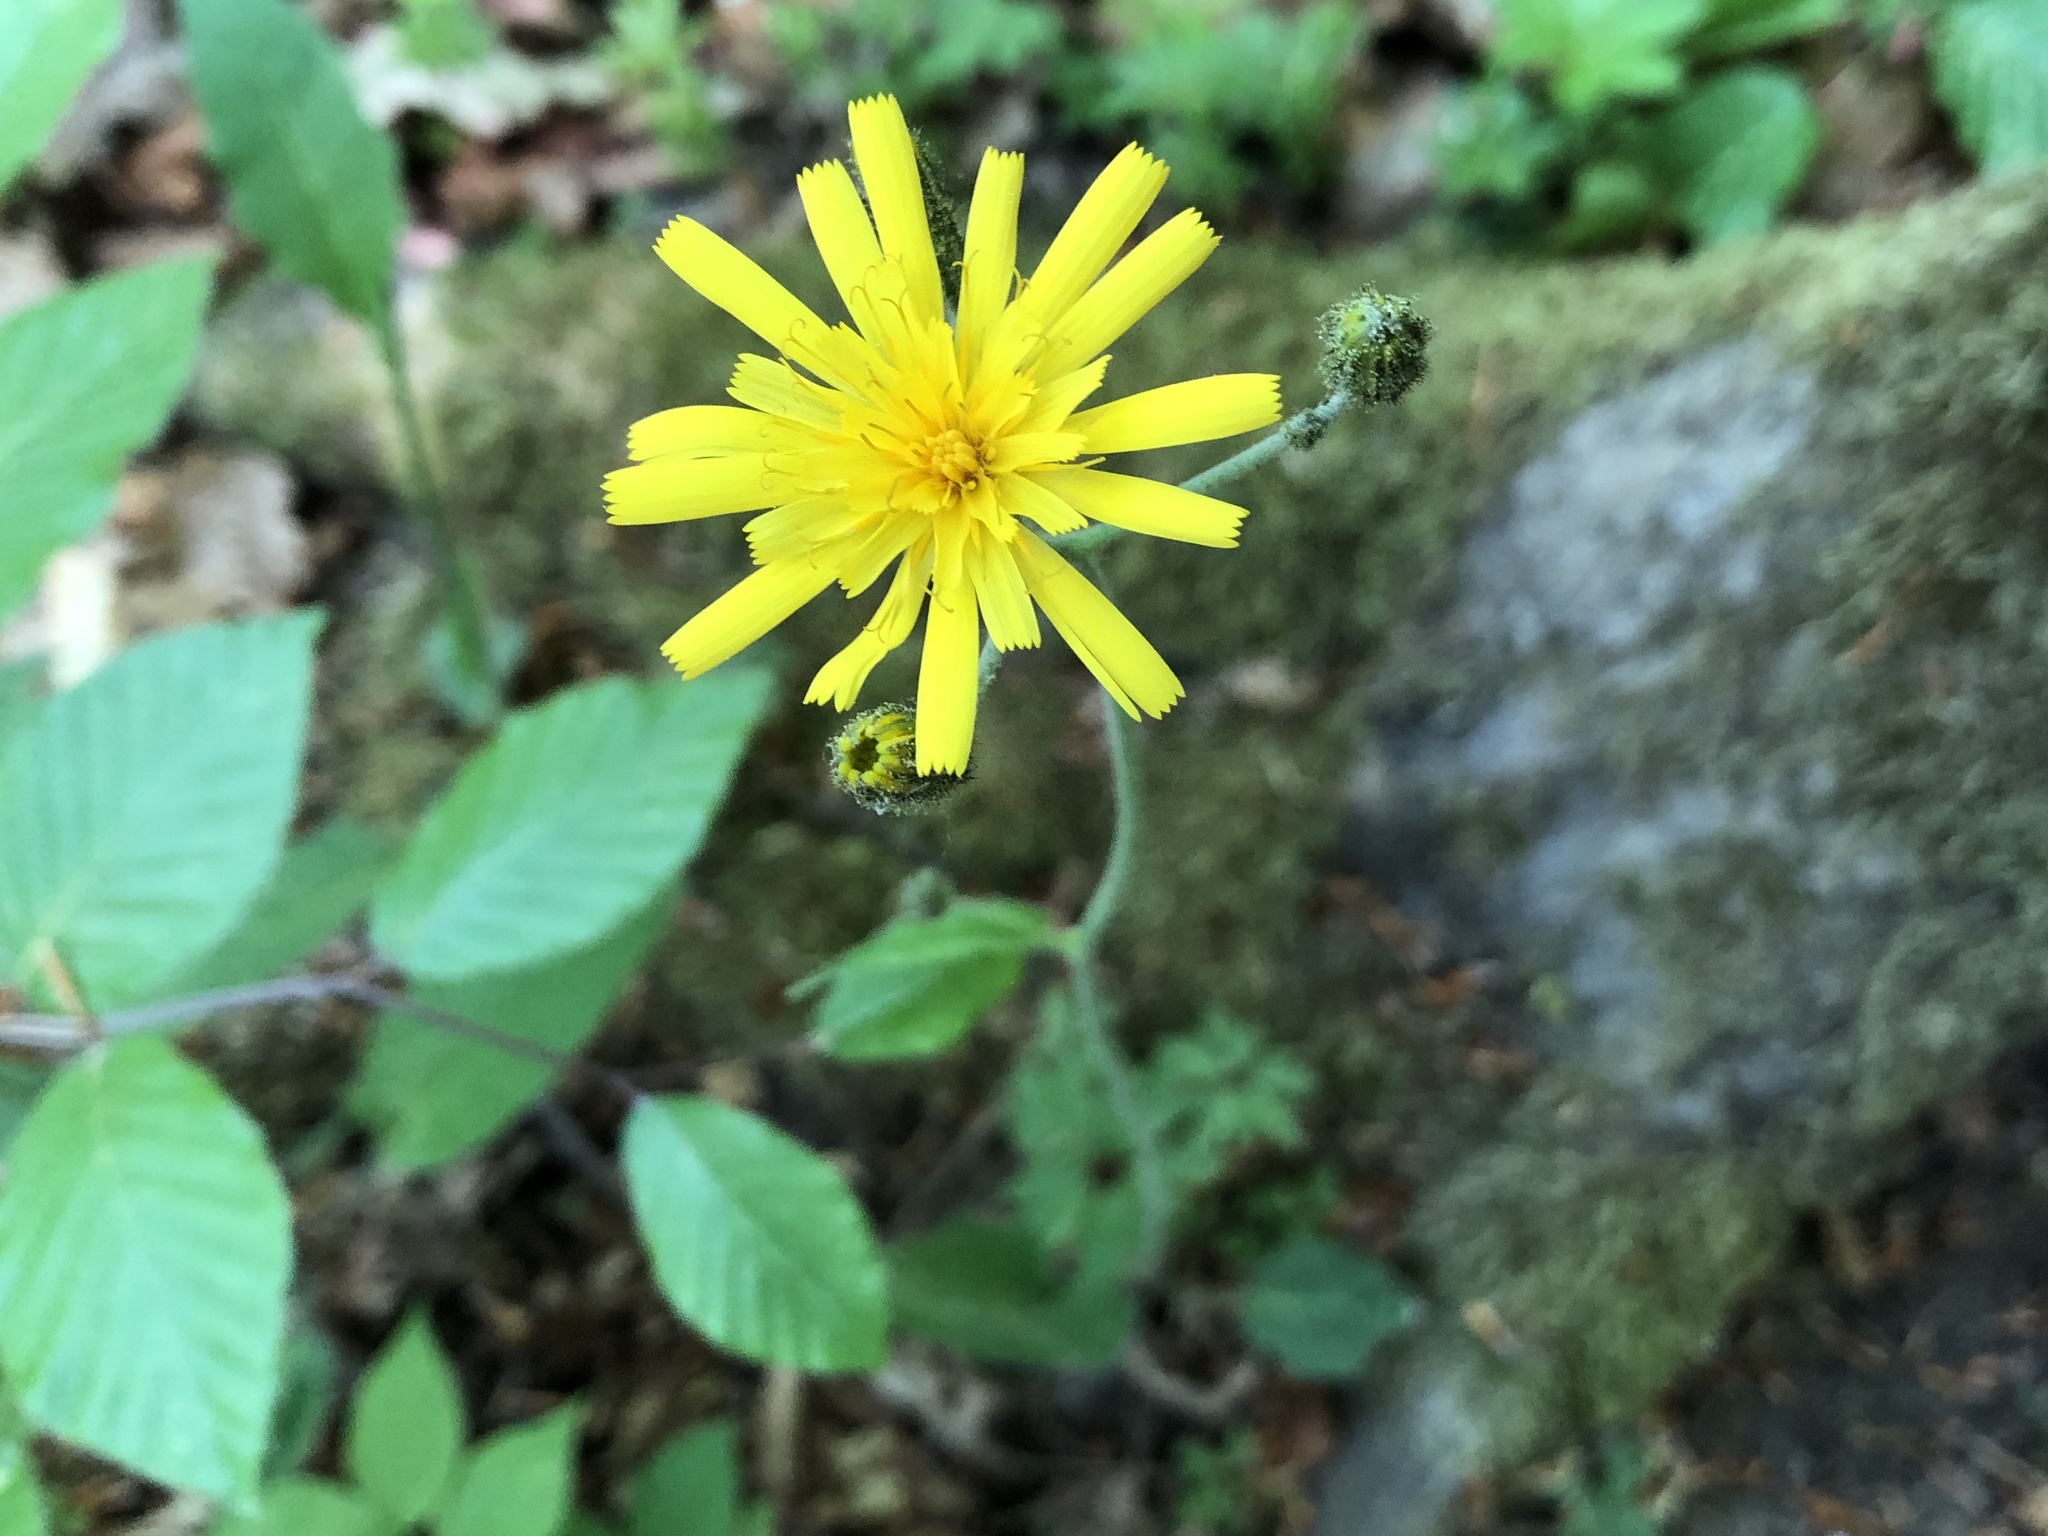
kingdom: Plantae
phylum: Tracheophyta
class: Magnoliopsida
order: Asterales
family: Asteraceae
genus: Hieracium
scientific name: Hieracium murorum
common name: Wall hawkweed
